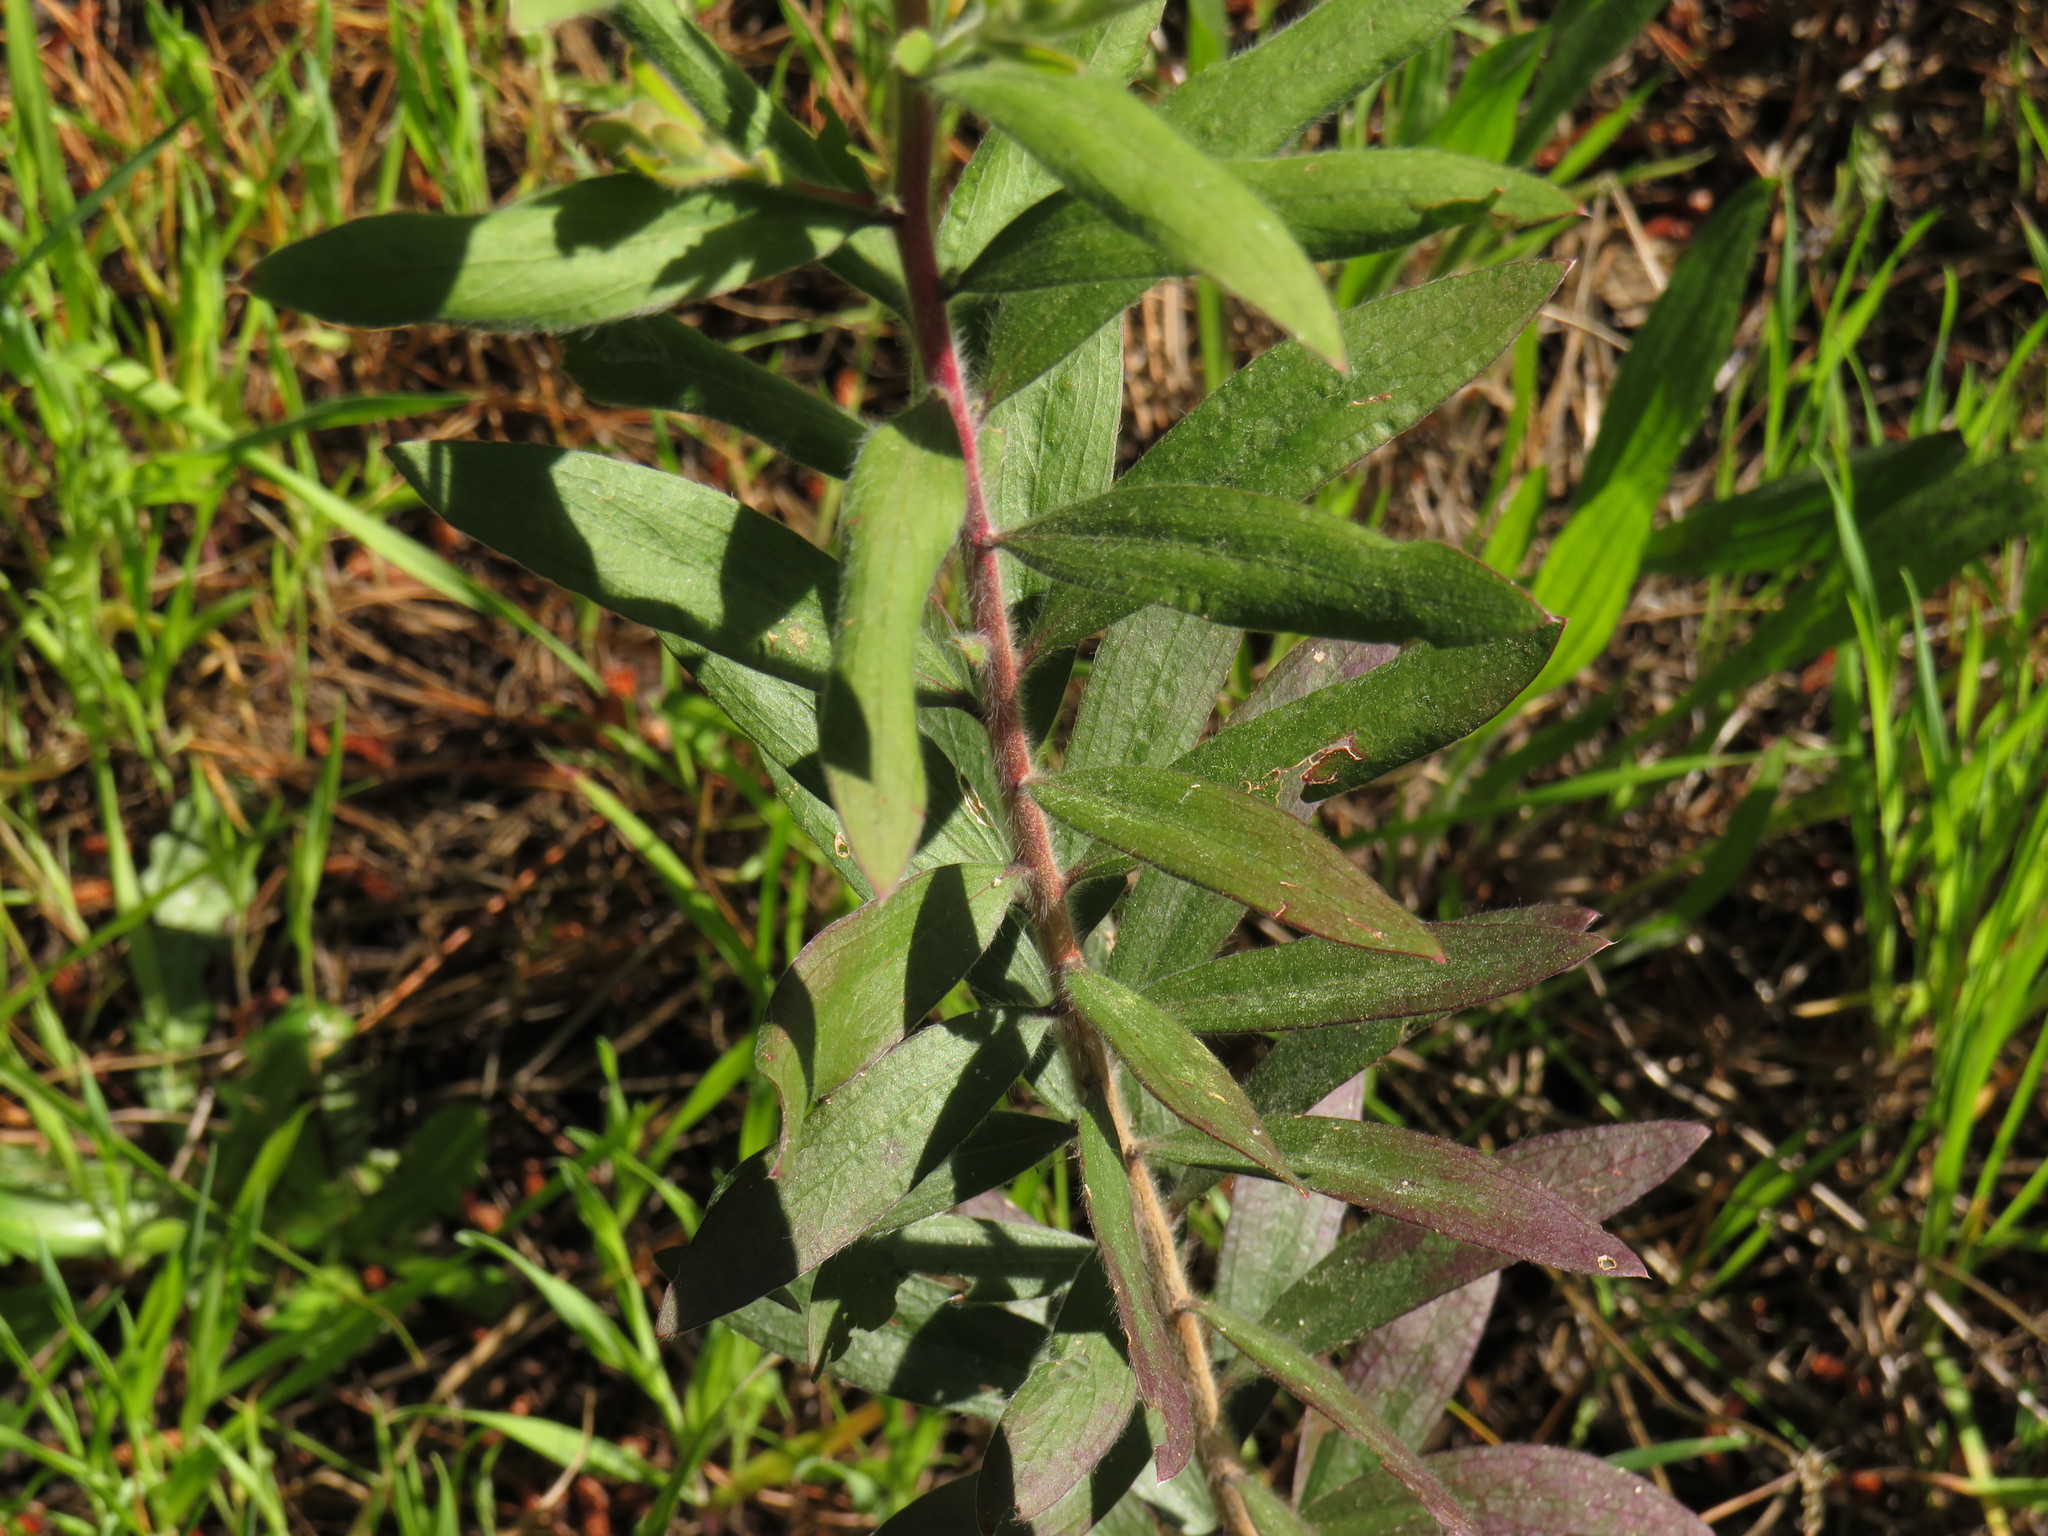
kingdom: Plantae
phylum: Tracheophyta
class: Magnoliopsida
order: Myrtales
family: Myrtaceae
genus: Melaleuca
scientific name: Melaleuca quinquenervia
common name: Punktree
